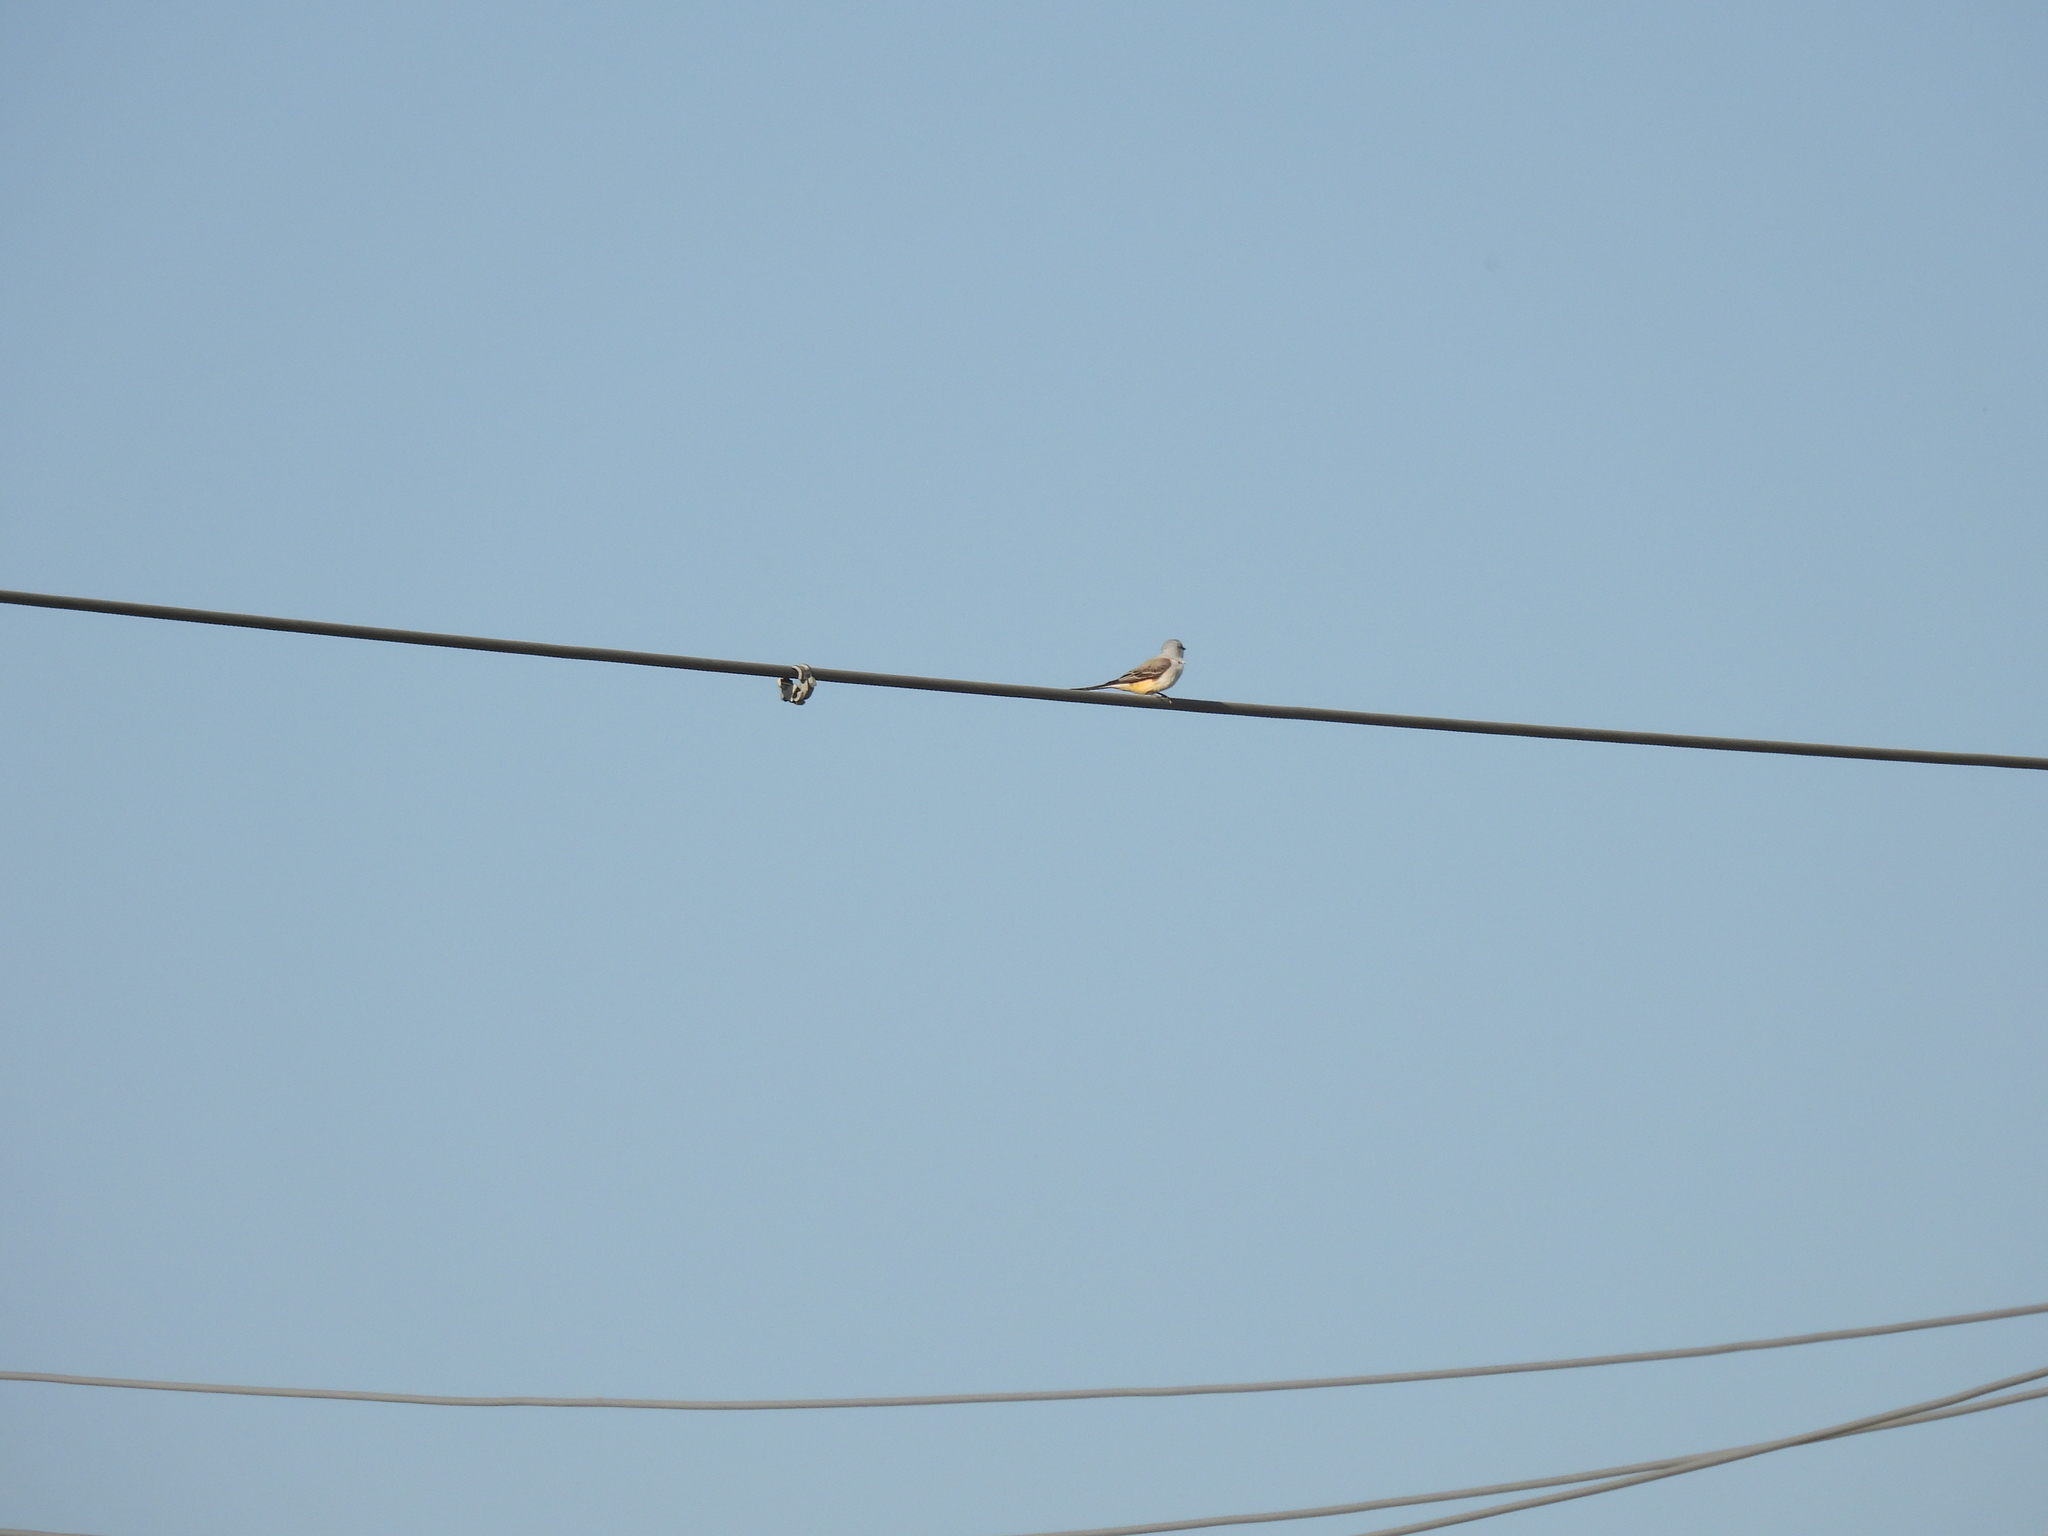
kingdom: Animalia
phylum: Chordata
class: Aves
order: Passeriformes
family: Tyrannidae
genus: Tyrannus
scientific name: Tyrannus forficatus
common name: Scissor-tailed flycatcher
